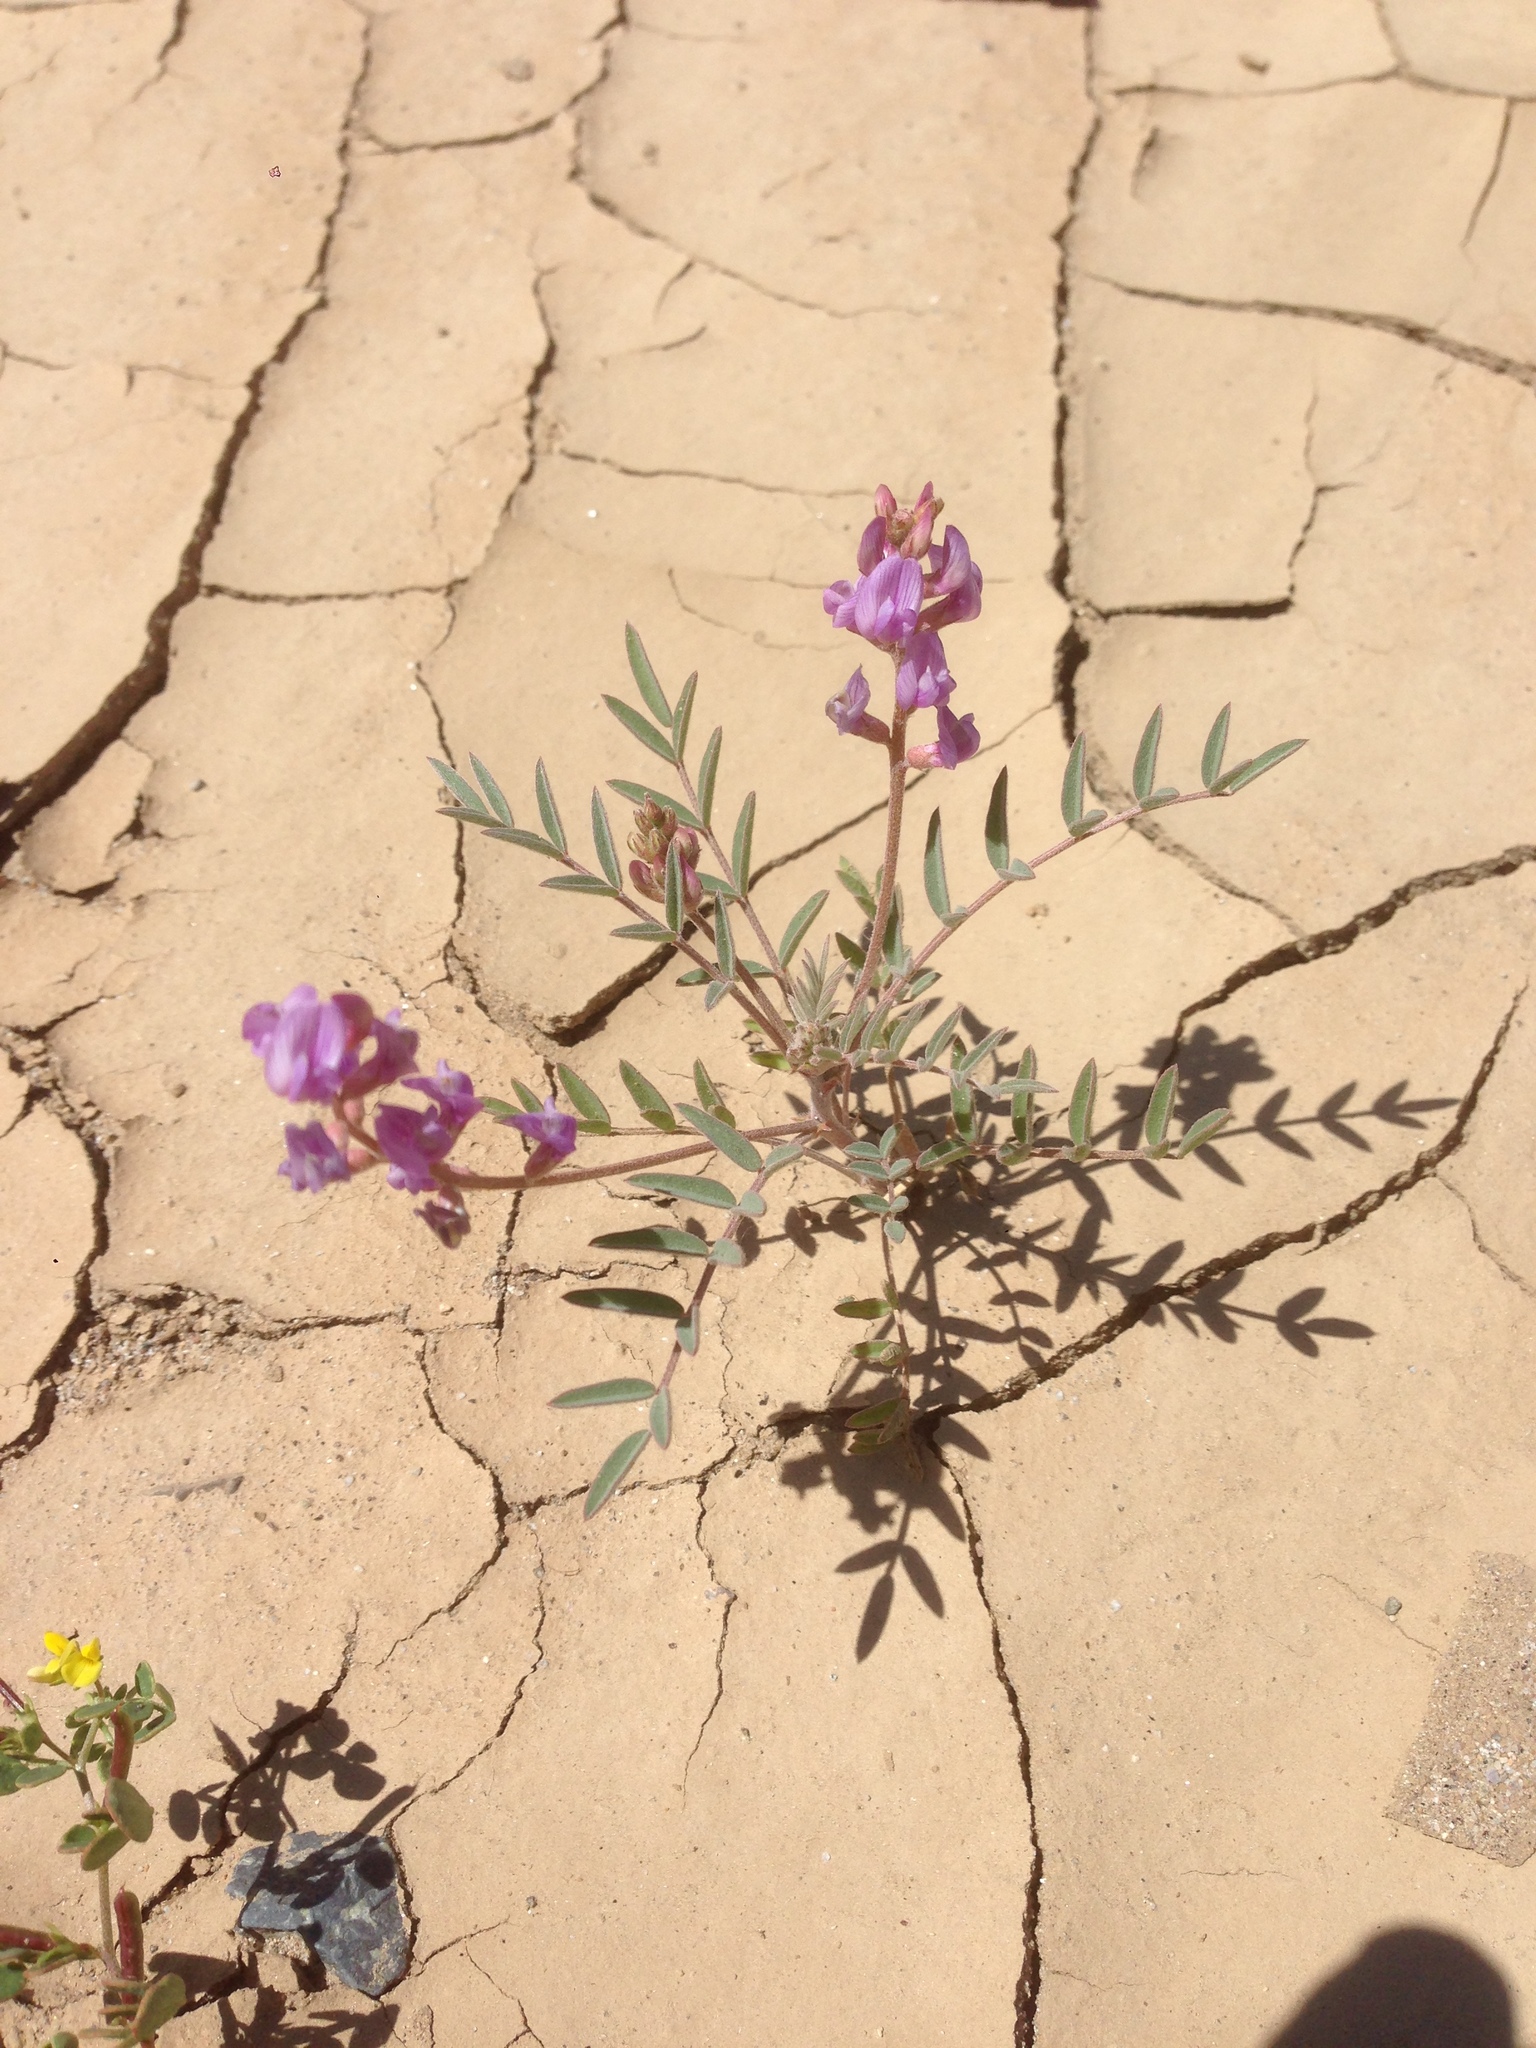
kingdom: Plantae
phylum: Tracheophyta
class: Magnoliopsida
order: Fabales
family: Fabaceae
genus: Astragalus
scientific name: Astragalus prorifer
